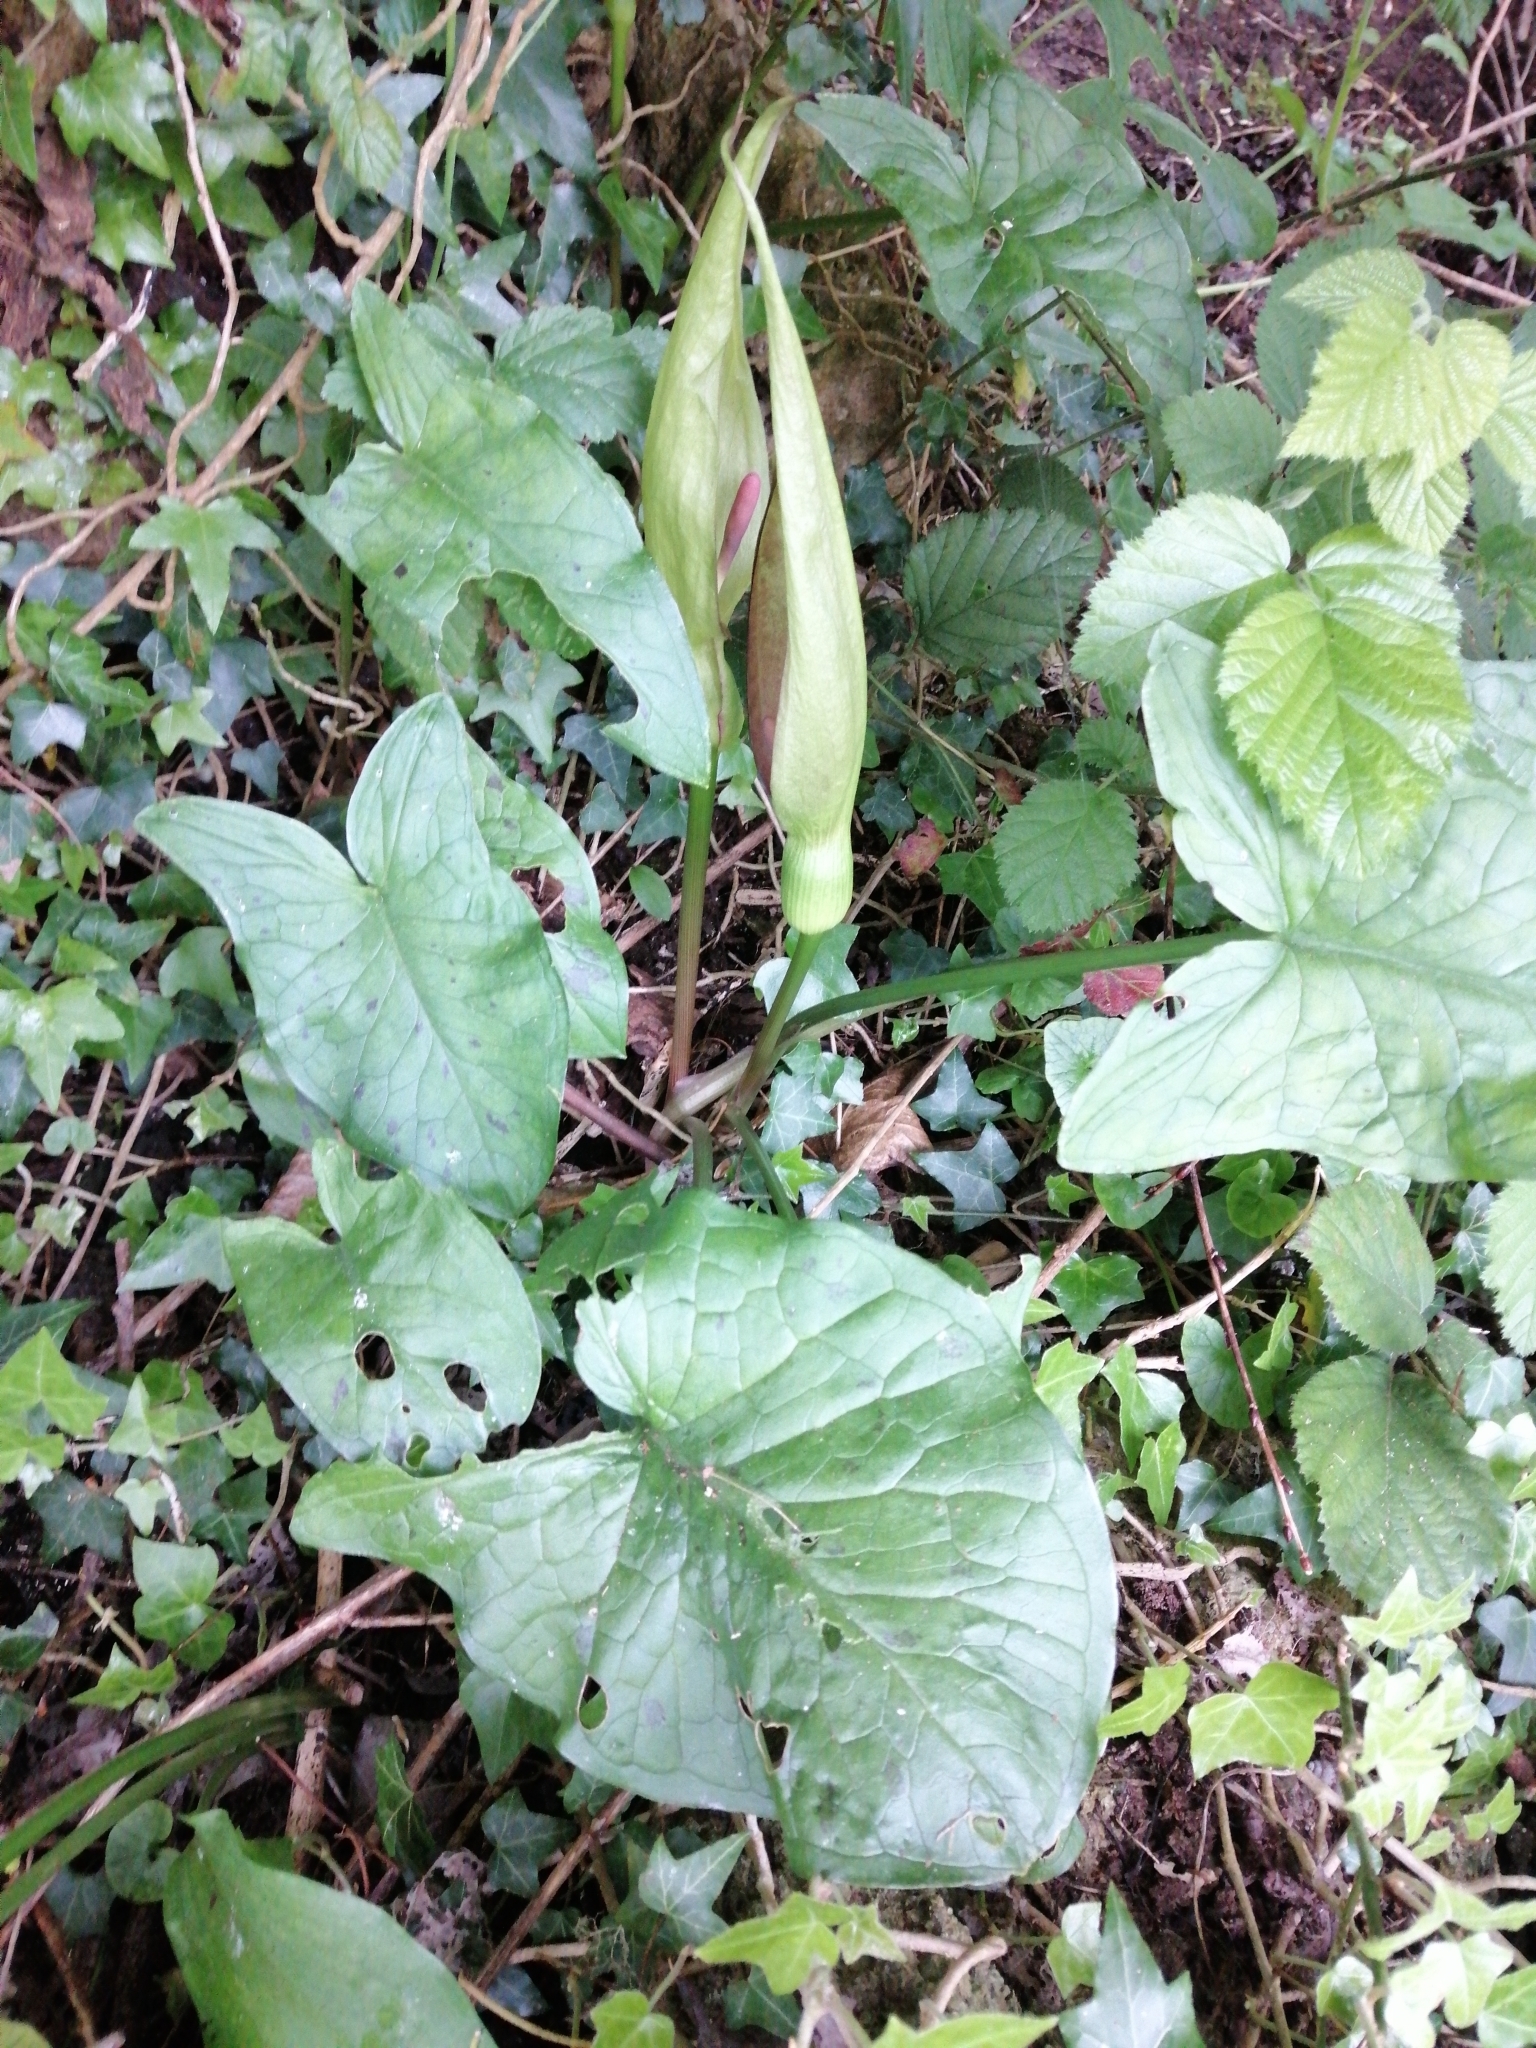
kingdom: Plantae
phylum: Tracheophyta
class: Liliopsida
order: Alismatales
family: Araceae
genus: Arum
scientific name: Arum maculatum
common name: Lords-and-ladies
